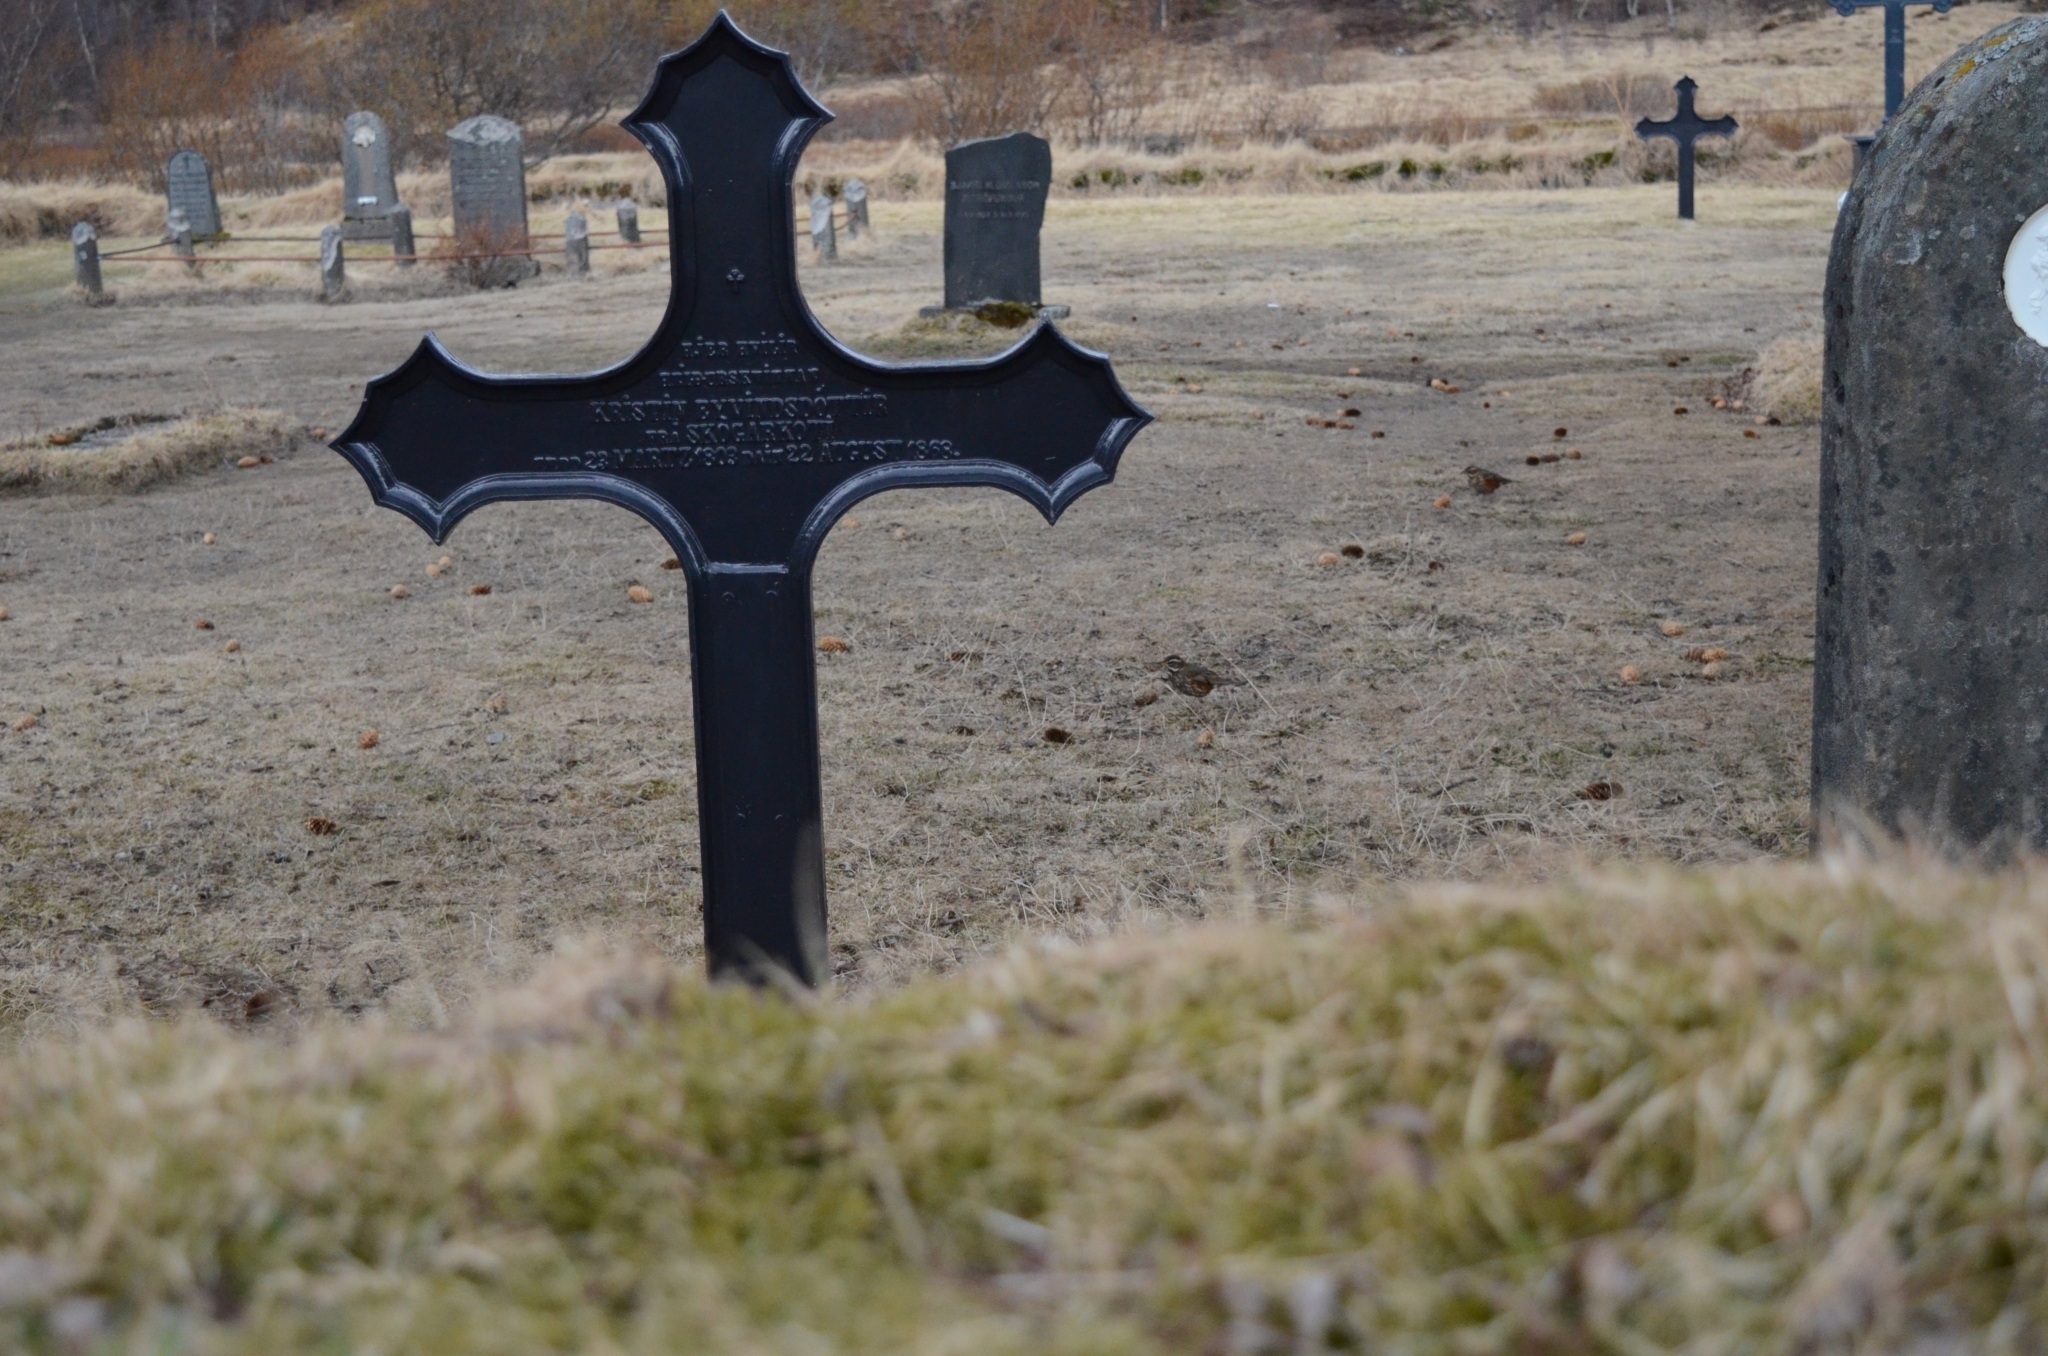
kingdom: Animalia
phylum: Chordata
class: Aves
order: Passeriformes
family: Turdidae
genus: Turdus
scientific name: Turdus iliacus
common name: Redwing
